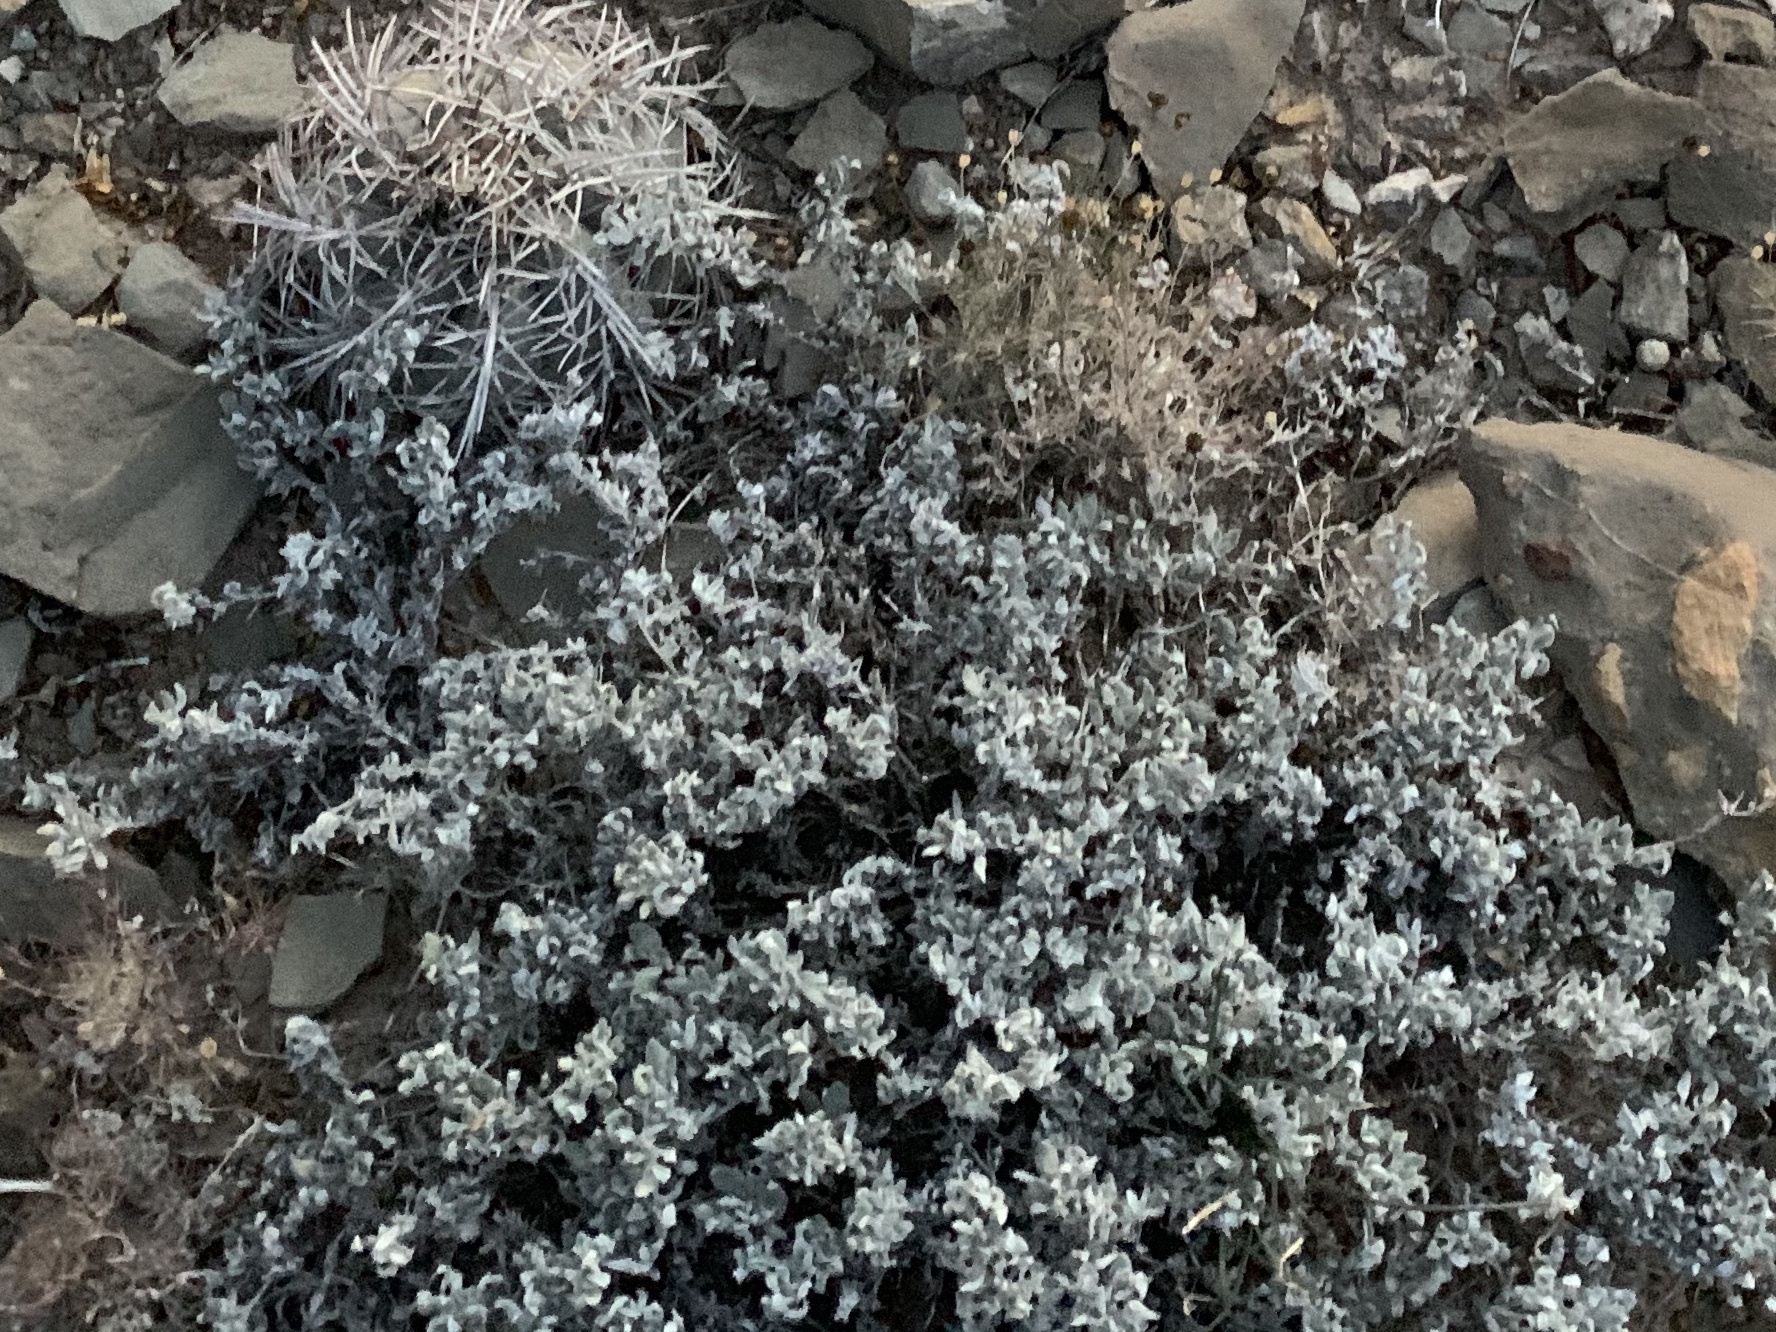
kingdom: Plantae
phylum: Tracheophyta
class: Magnoliopsida
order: Boraginales
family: Ehretiaceae
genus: Tiquilia
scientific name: Tiquilia canescens
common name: Hairy tiquilia
